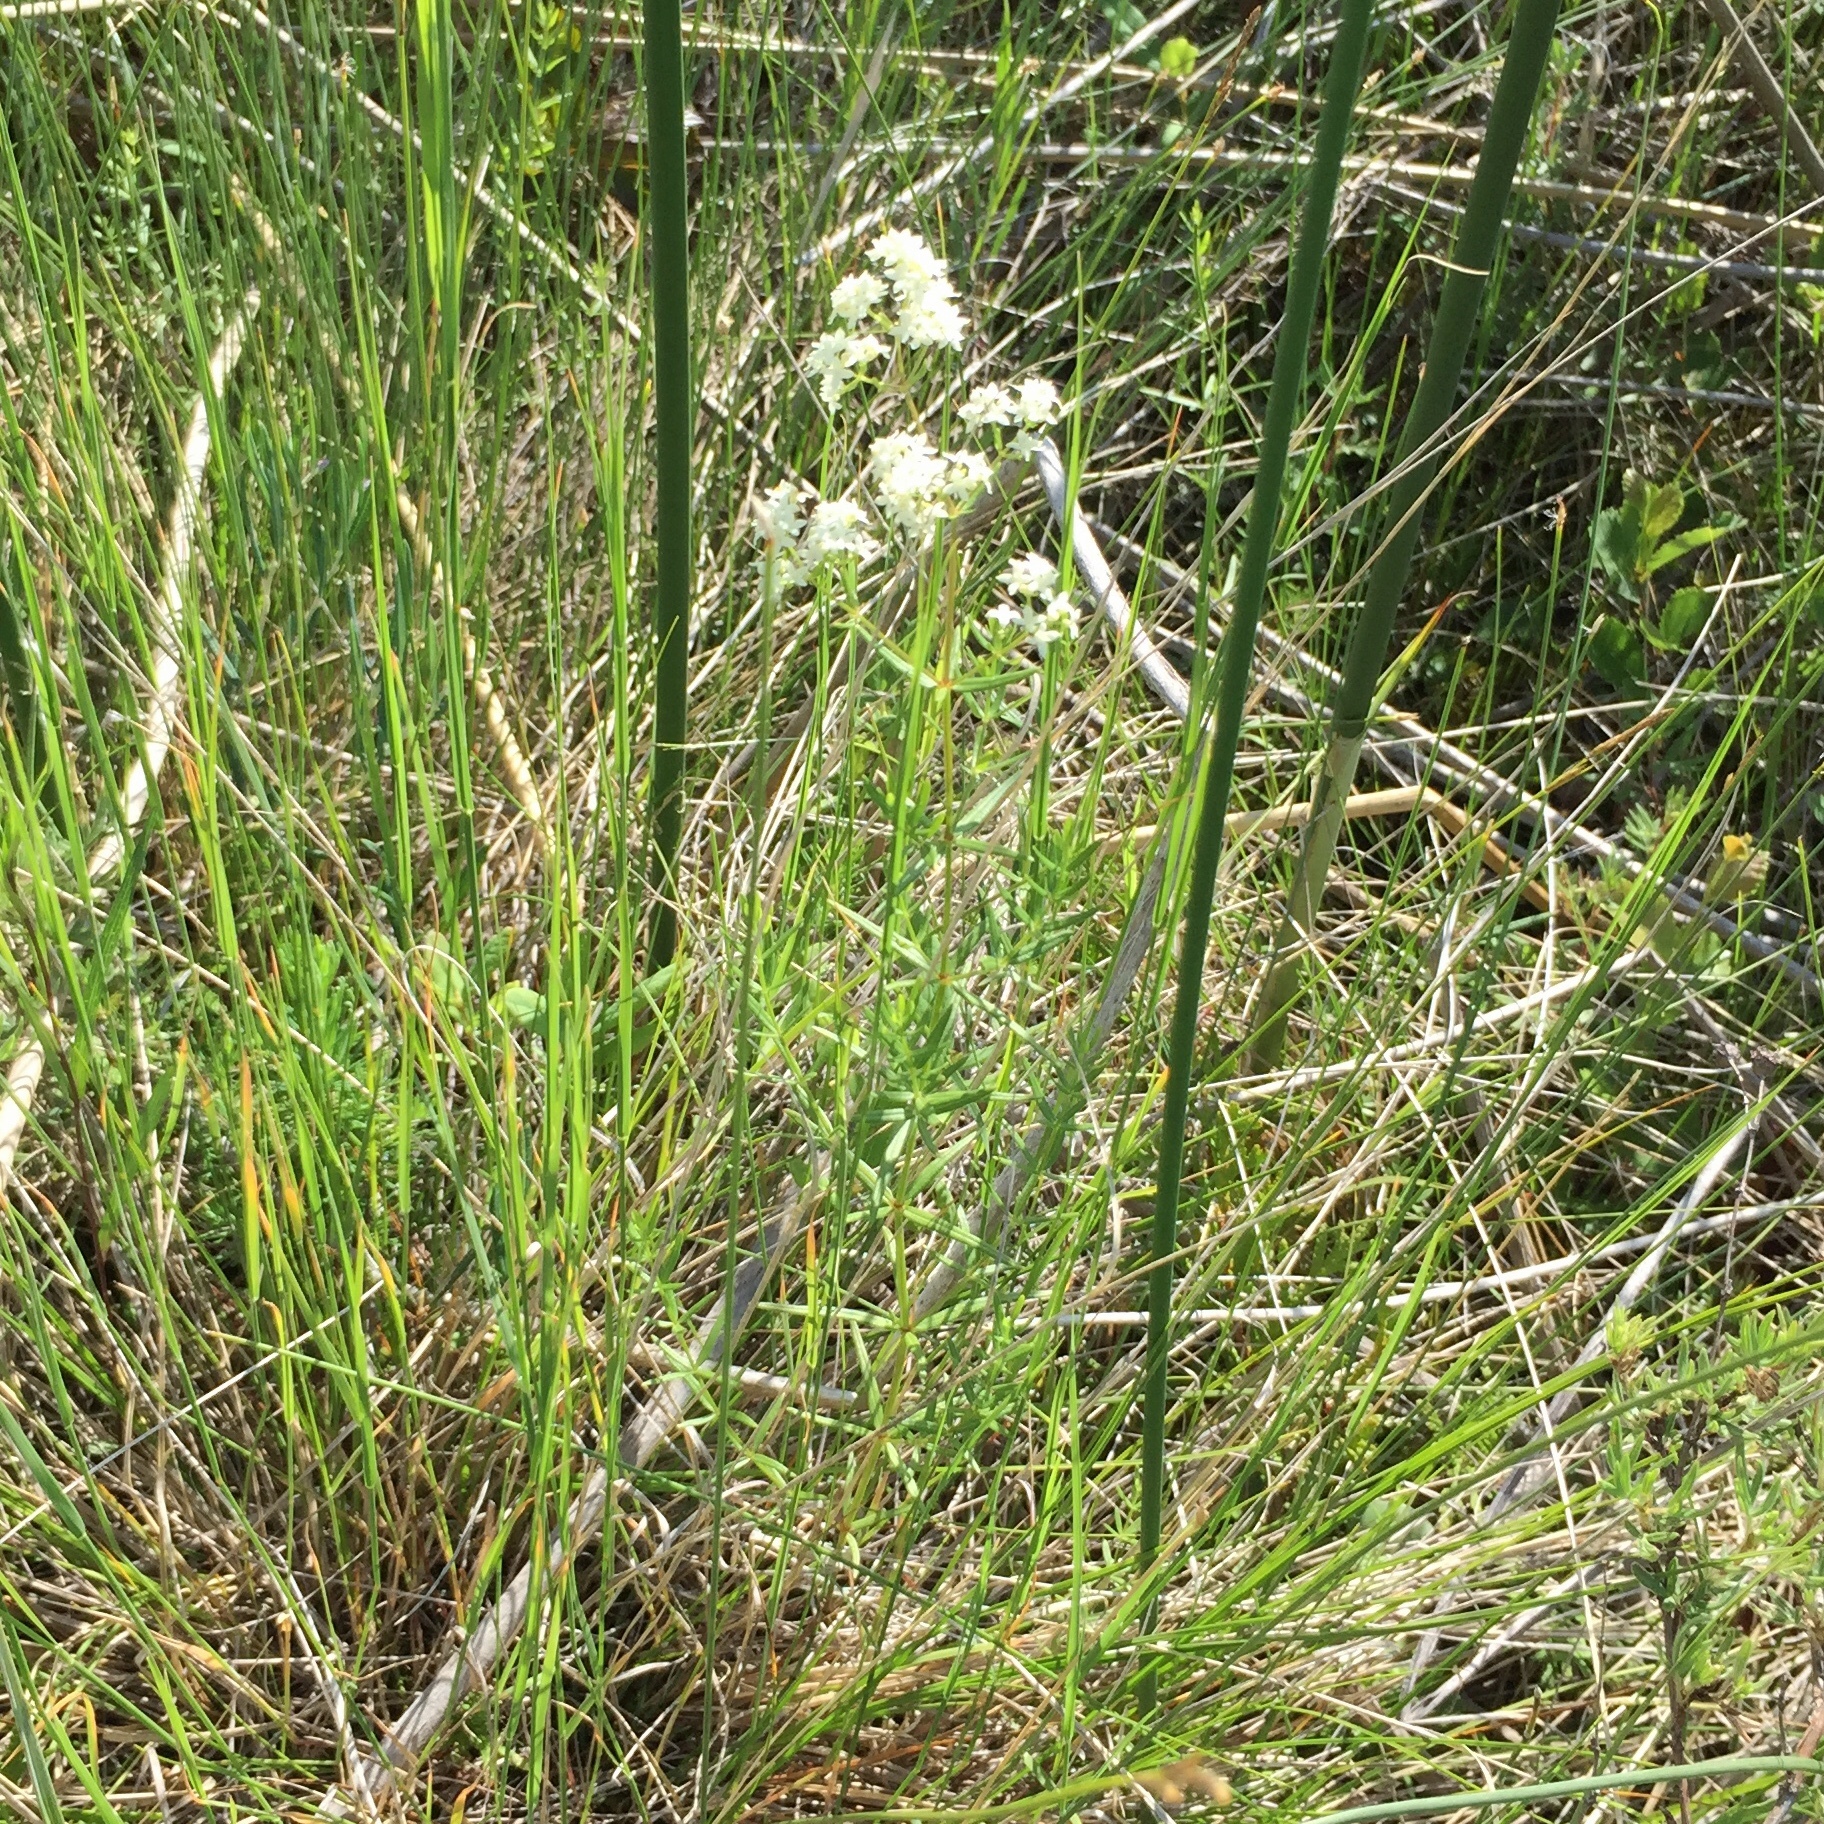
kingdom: Plantae
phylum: Tracheophyta
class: Magnoliopsida
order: Gentianales
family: Rubiaceae
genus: Galium
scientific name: Galium boreale
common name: Northern bedstraw
